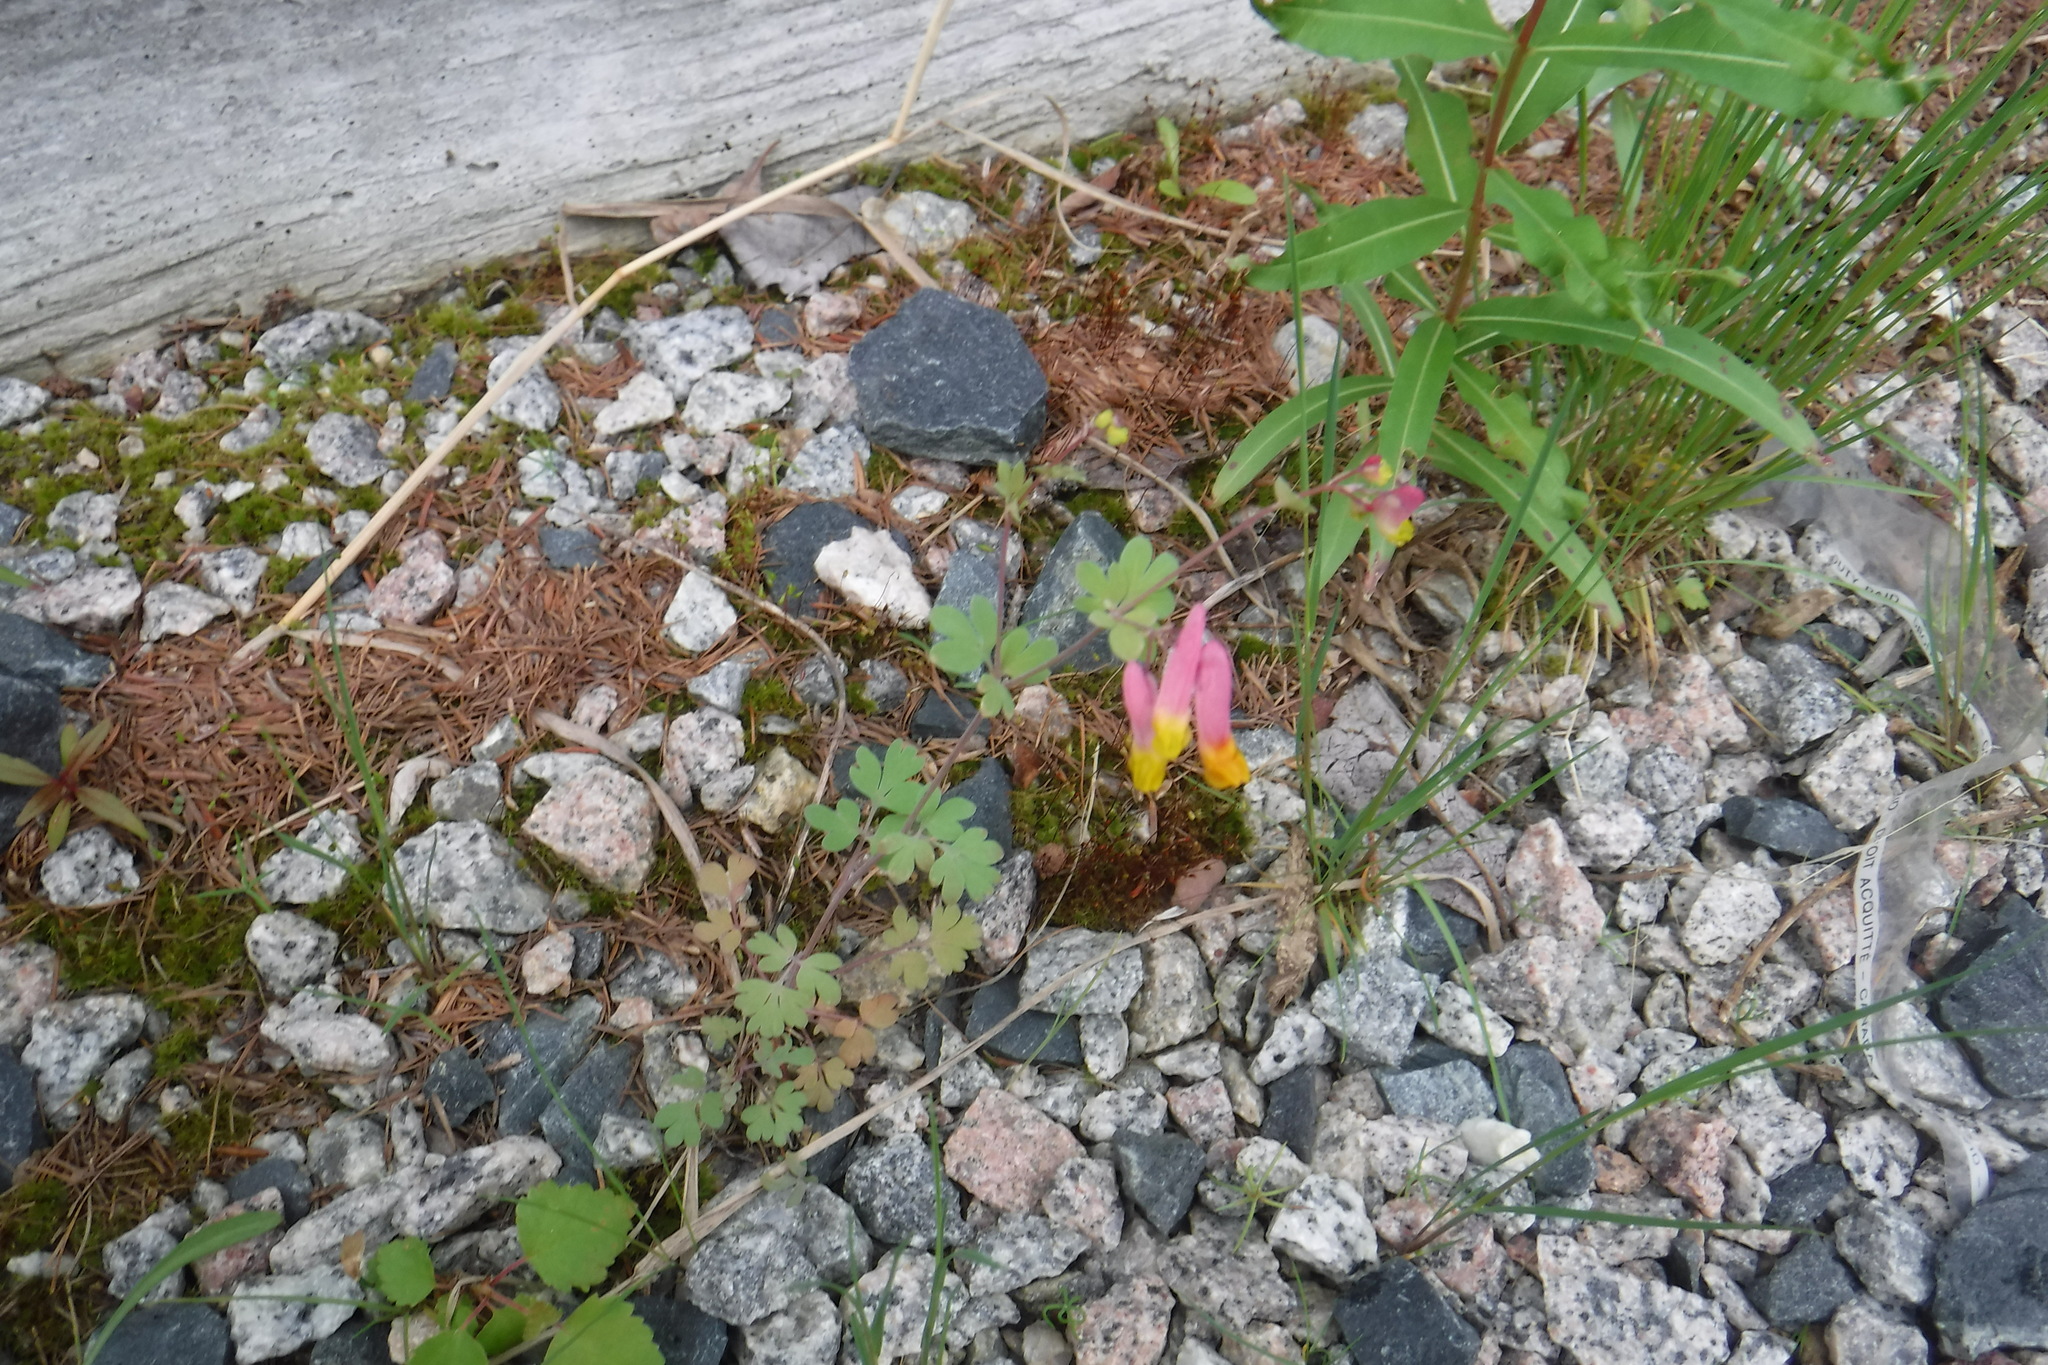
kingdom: Plantae
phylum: Tracheophyta
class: Magnoliopsida
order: Ranunculales
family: Papaveraceae
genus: Capnoides
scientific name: Capnoides sempervirens
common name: Rock harlequin
